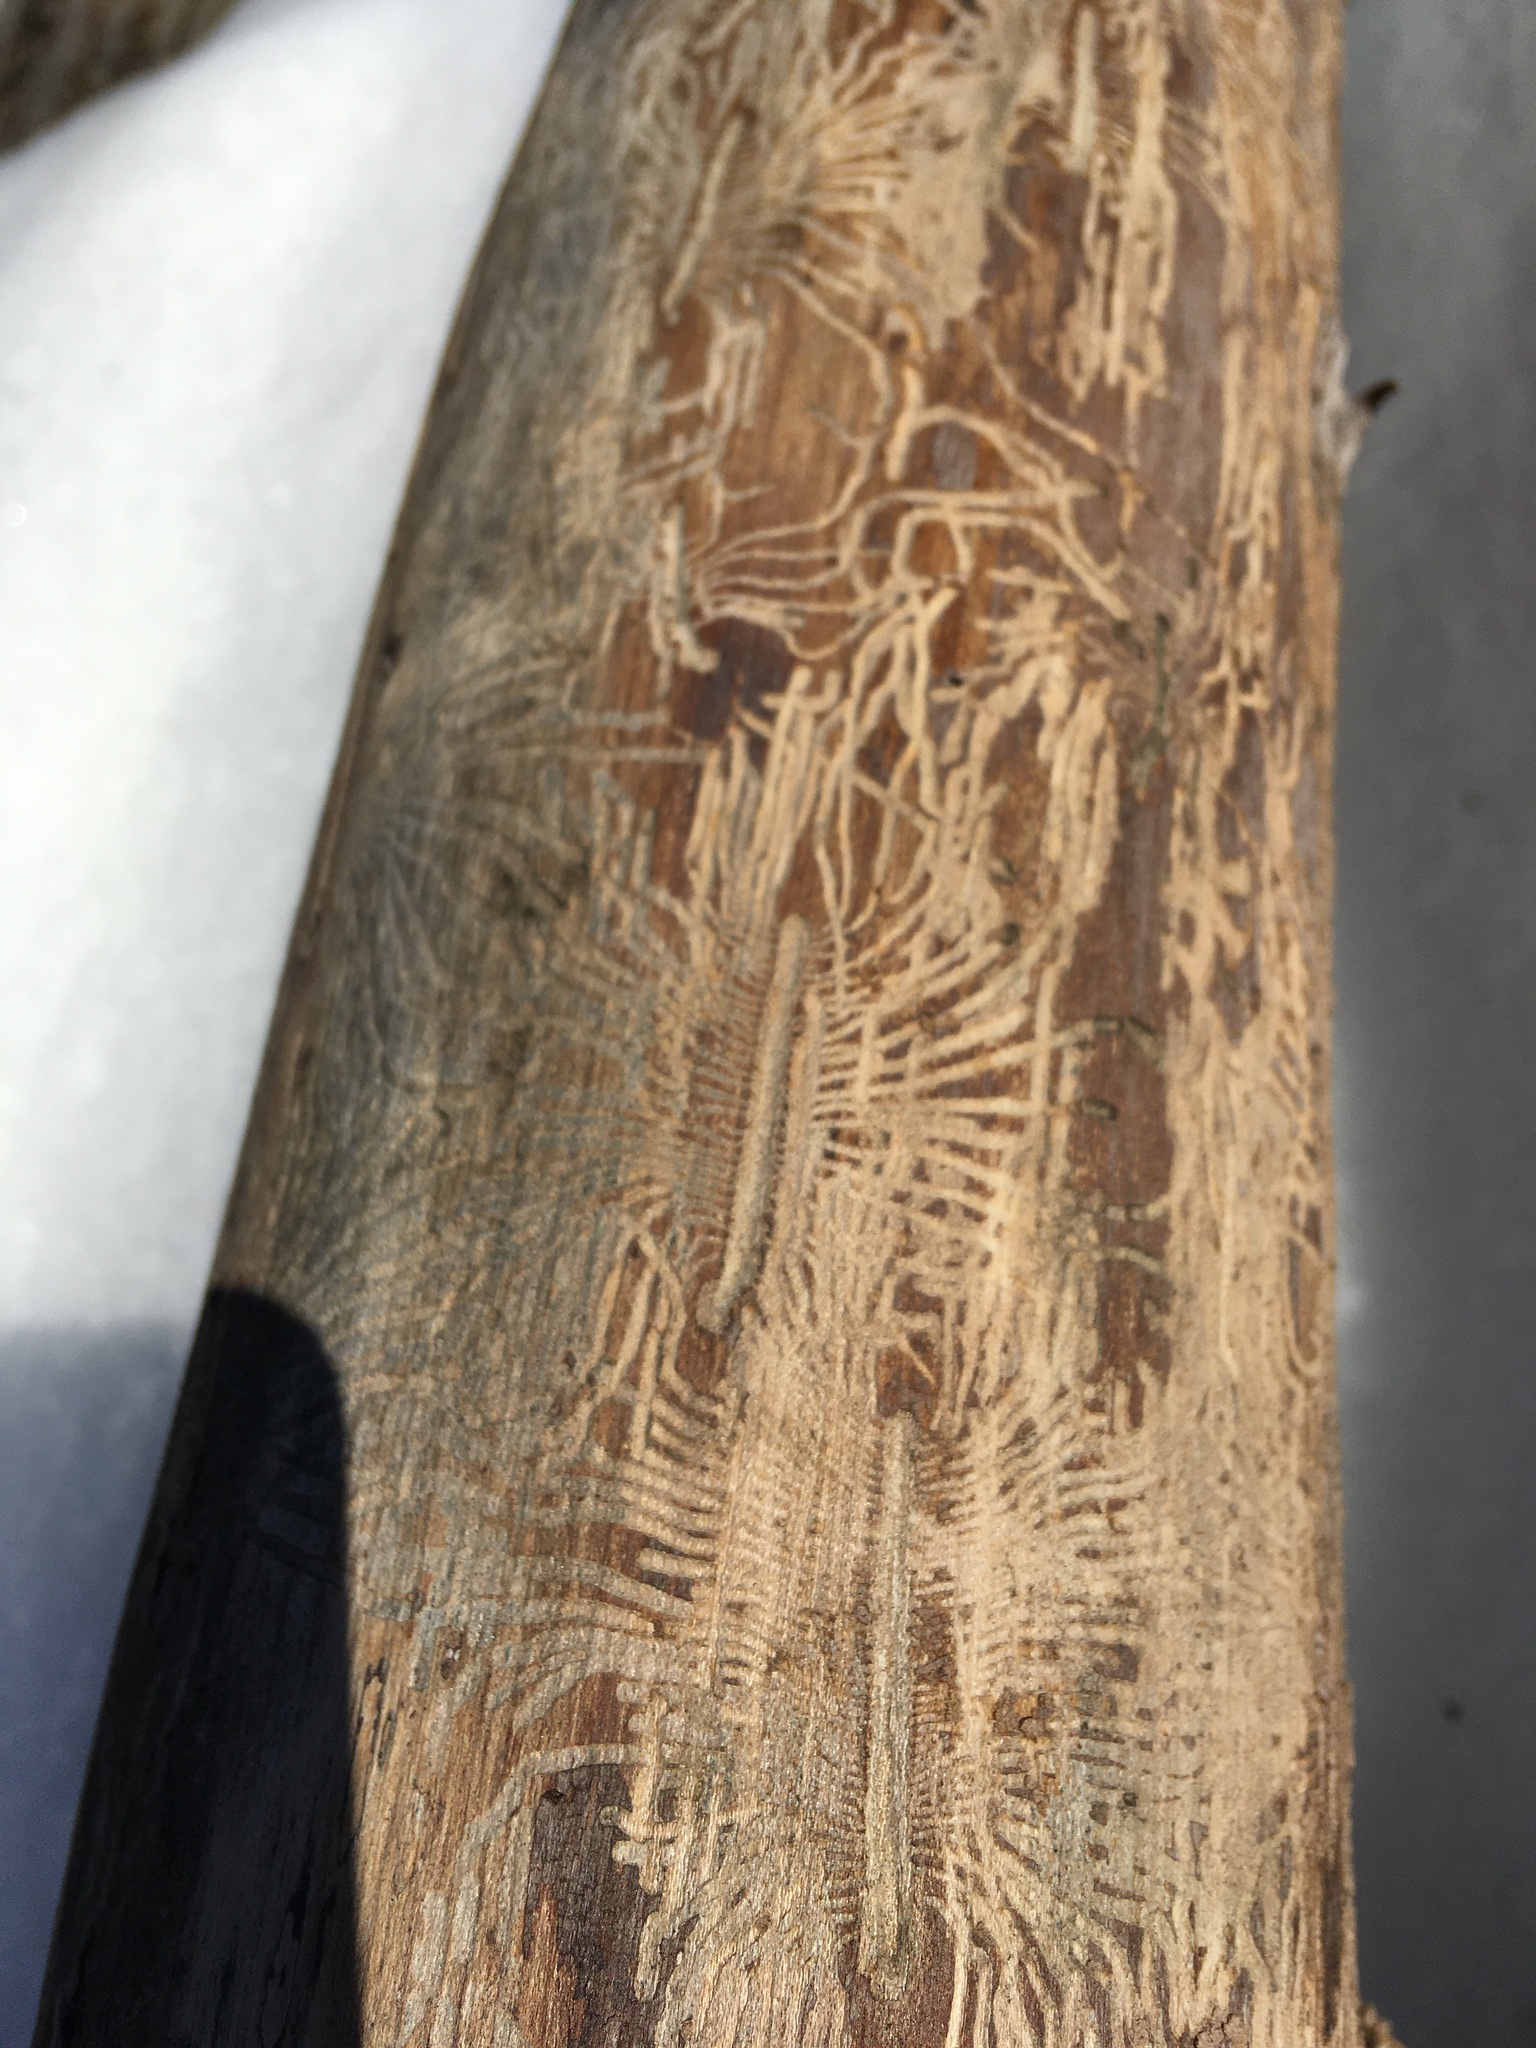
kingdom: Animalia
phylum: Arthropoda
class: Insecta
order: Coleoptera
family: Curculionidae
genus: Scolytus
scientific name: Scolytus multistriatus
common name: European elm bark beetle
